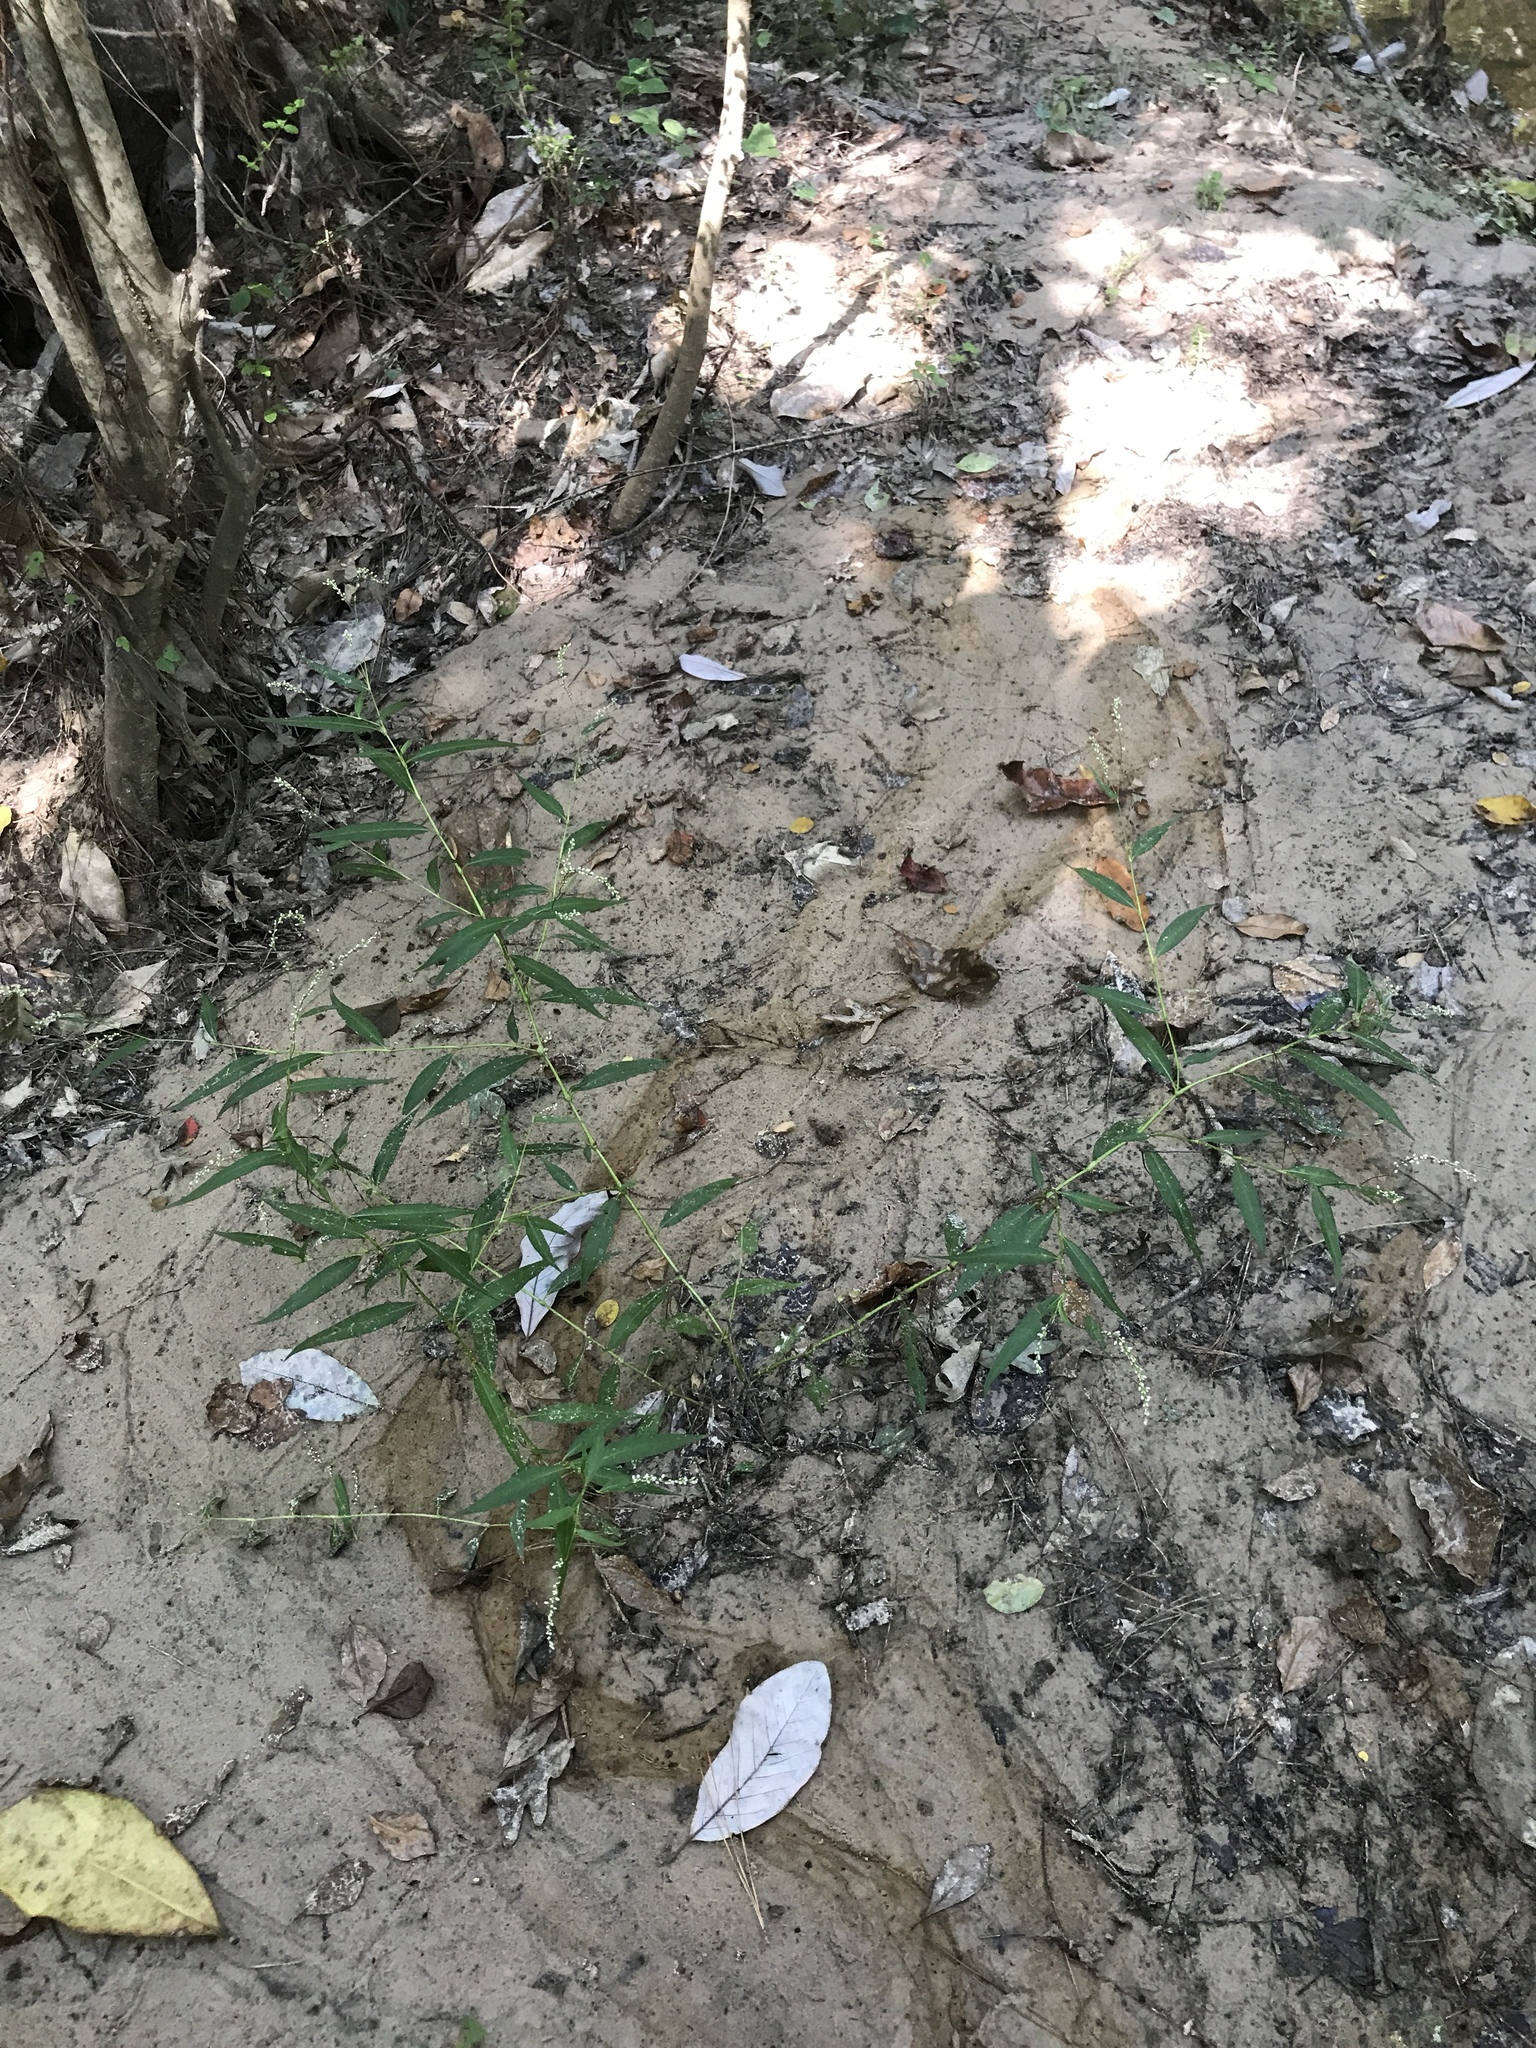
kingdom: Plantae
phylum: Tracheophyta
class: Magnoliopsida
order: Caryophyllales
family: Polygonaceae
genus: Persicaria
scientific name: Persicaria glabra
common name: Denseflower knotweed
